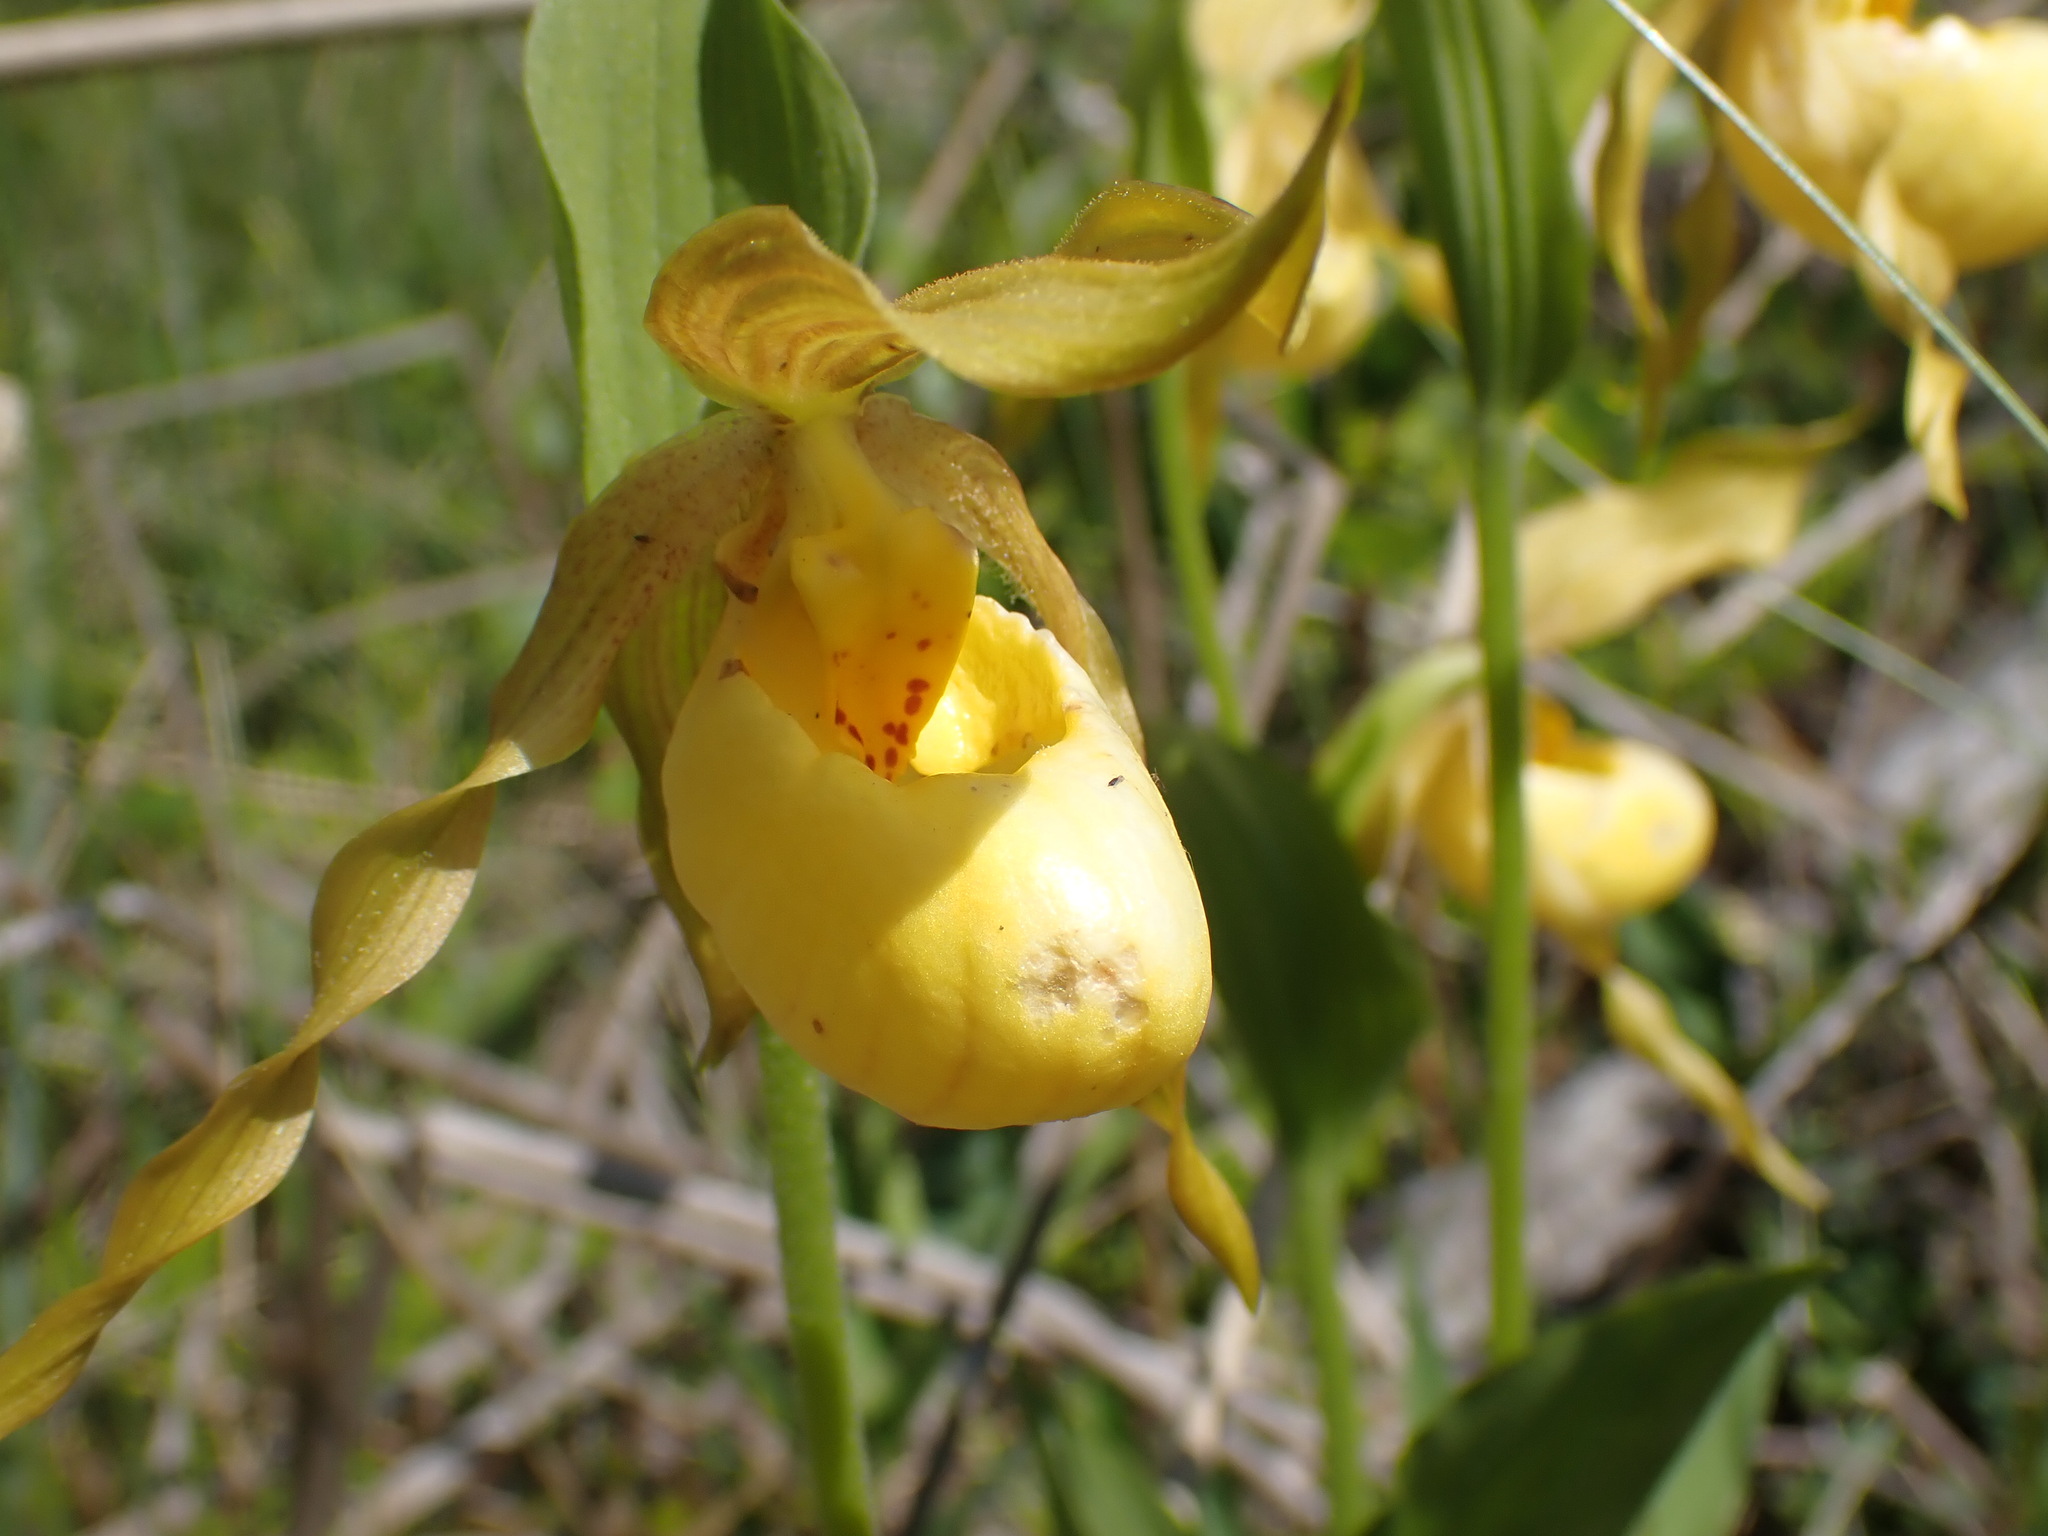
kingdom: Plantae
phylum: Tracheophyta
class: Liliopsida
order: Asparagales
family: Orchidaceae
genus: Cypripedium
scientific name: Cypripedium parviflorum
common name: American yellow lady's-slipper
